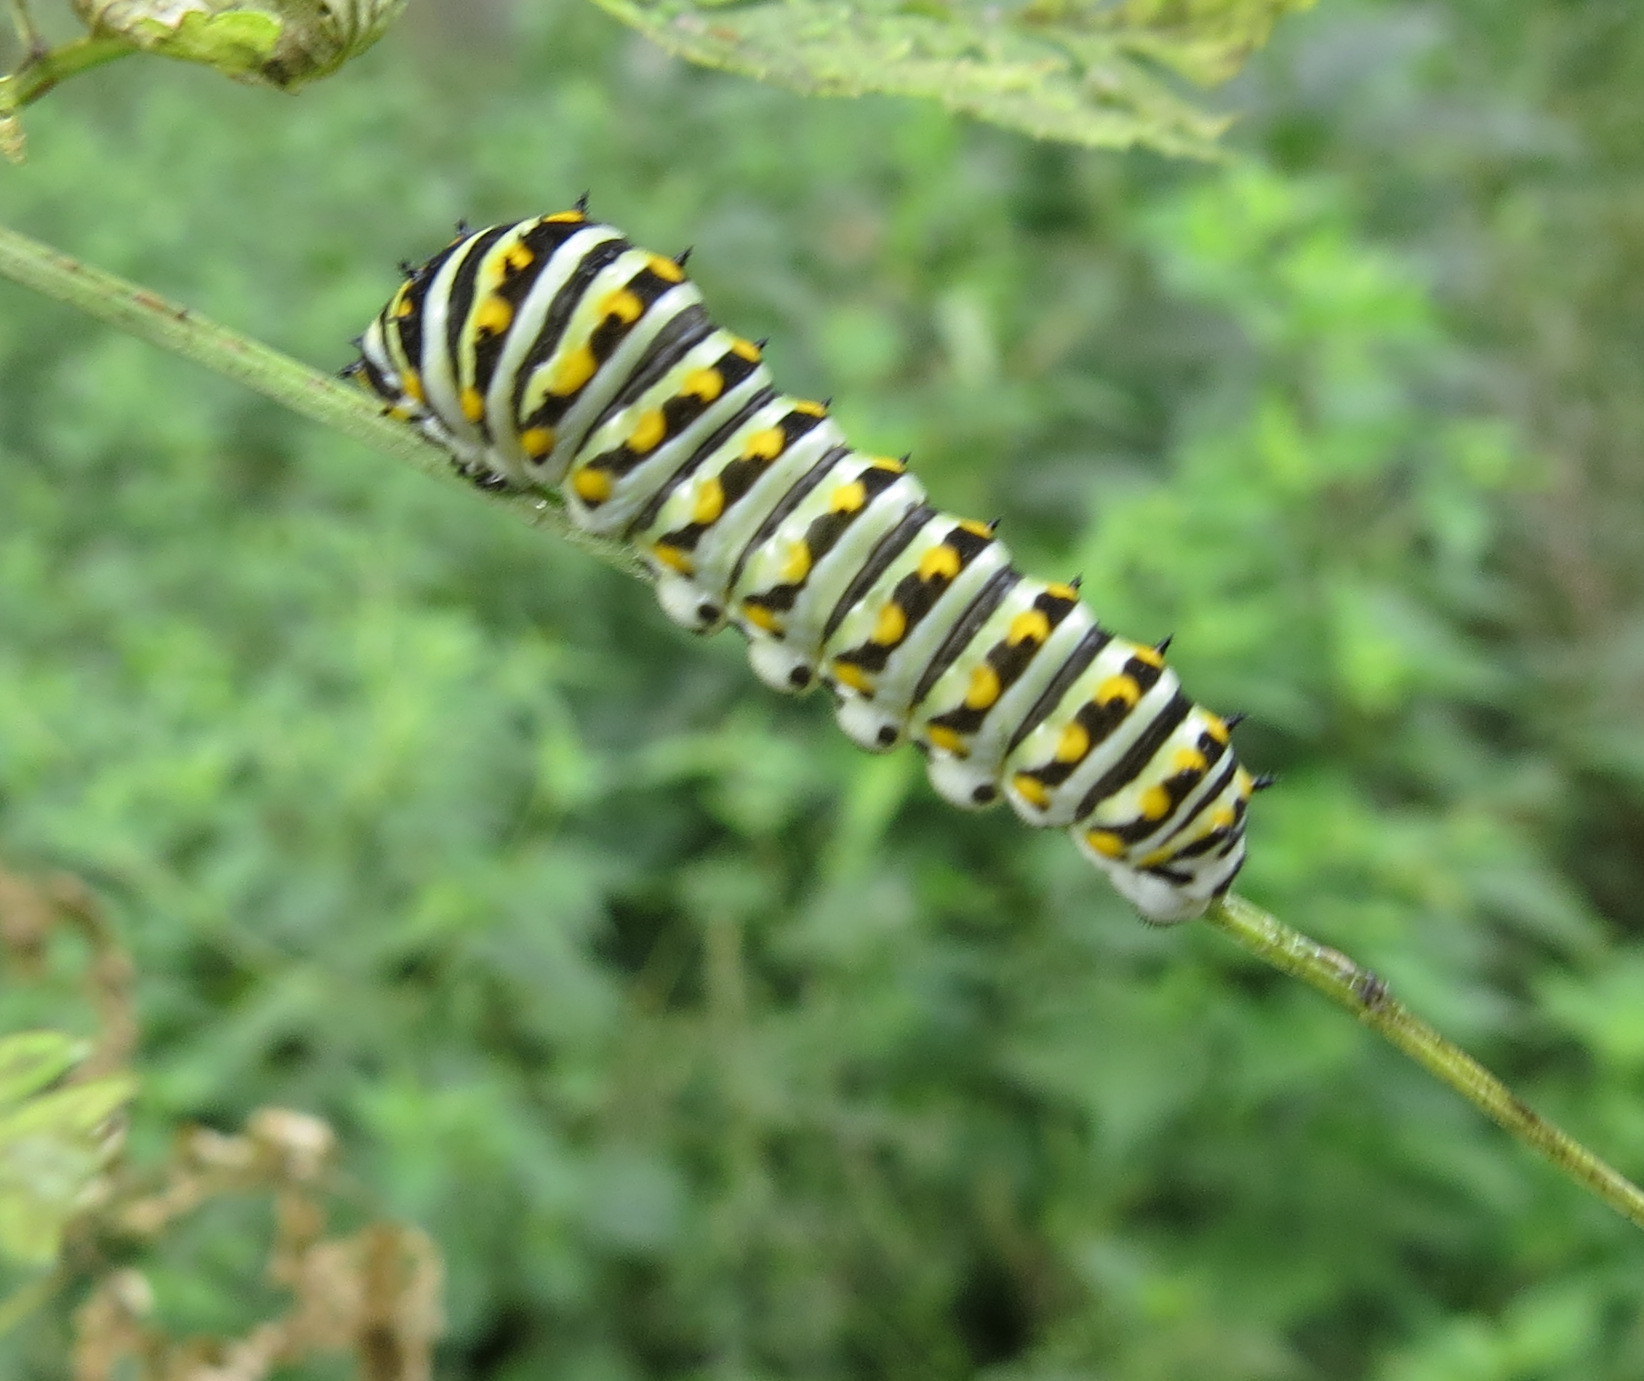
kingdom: Animalia
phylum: Arthropoda
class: Insecta
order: Lepidoptera
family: Papilionidae
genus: Papilio
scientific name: Papilio polyxenes
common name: Black swallowtail
